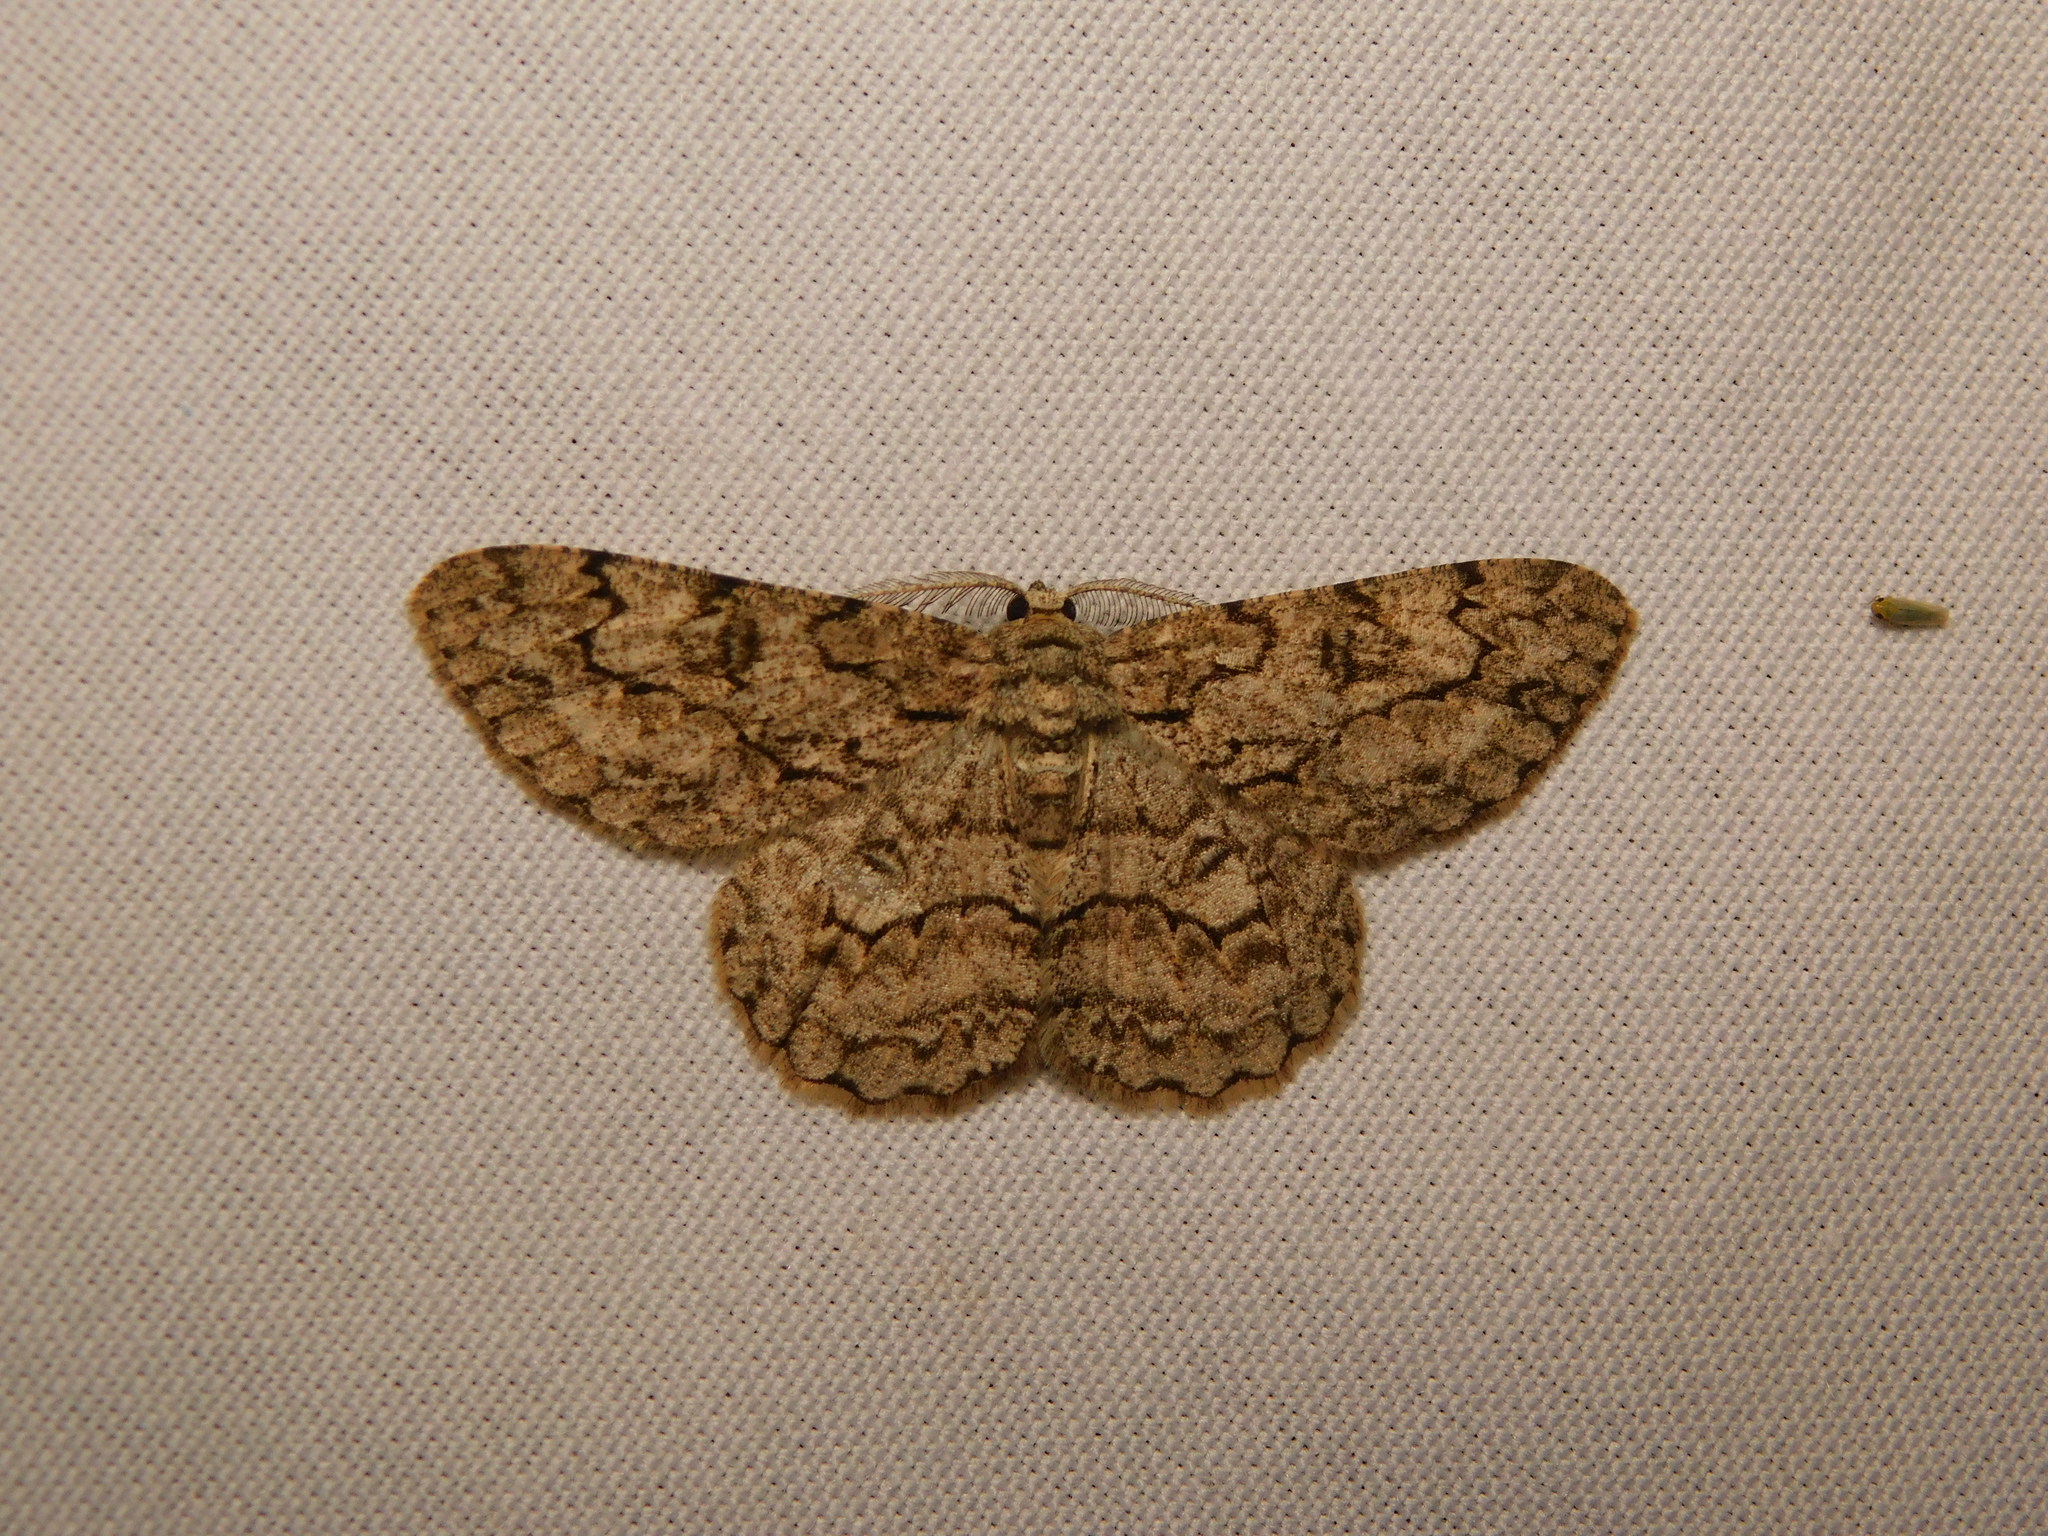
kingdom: Animalia
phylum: Arthropoda
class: Insecta
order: Lepidoptera
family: Geometridae
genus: Hypomecis
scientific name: Hypomecis transcissa
